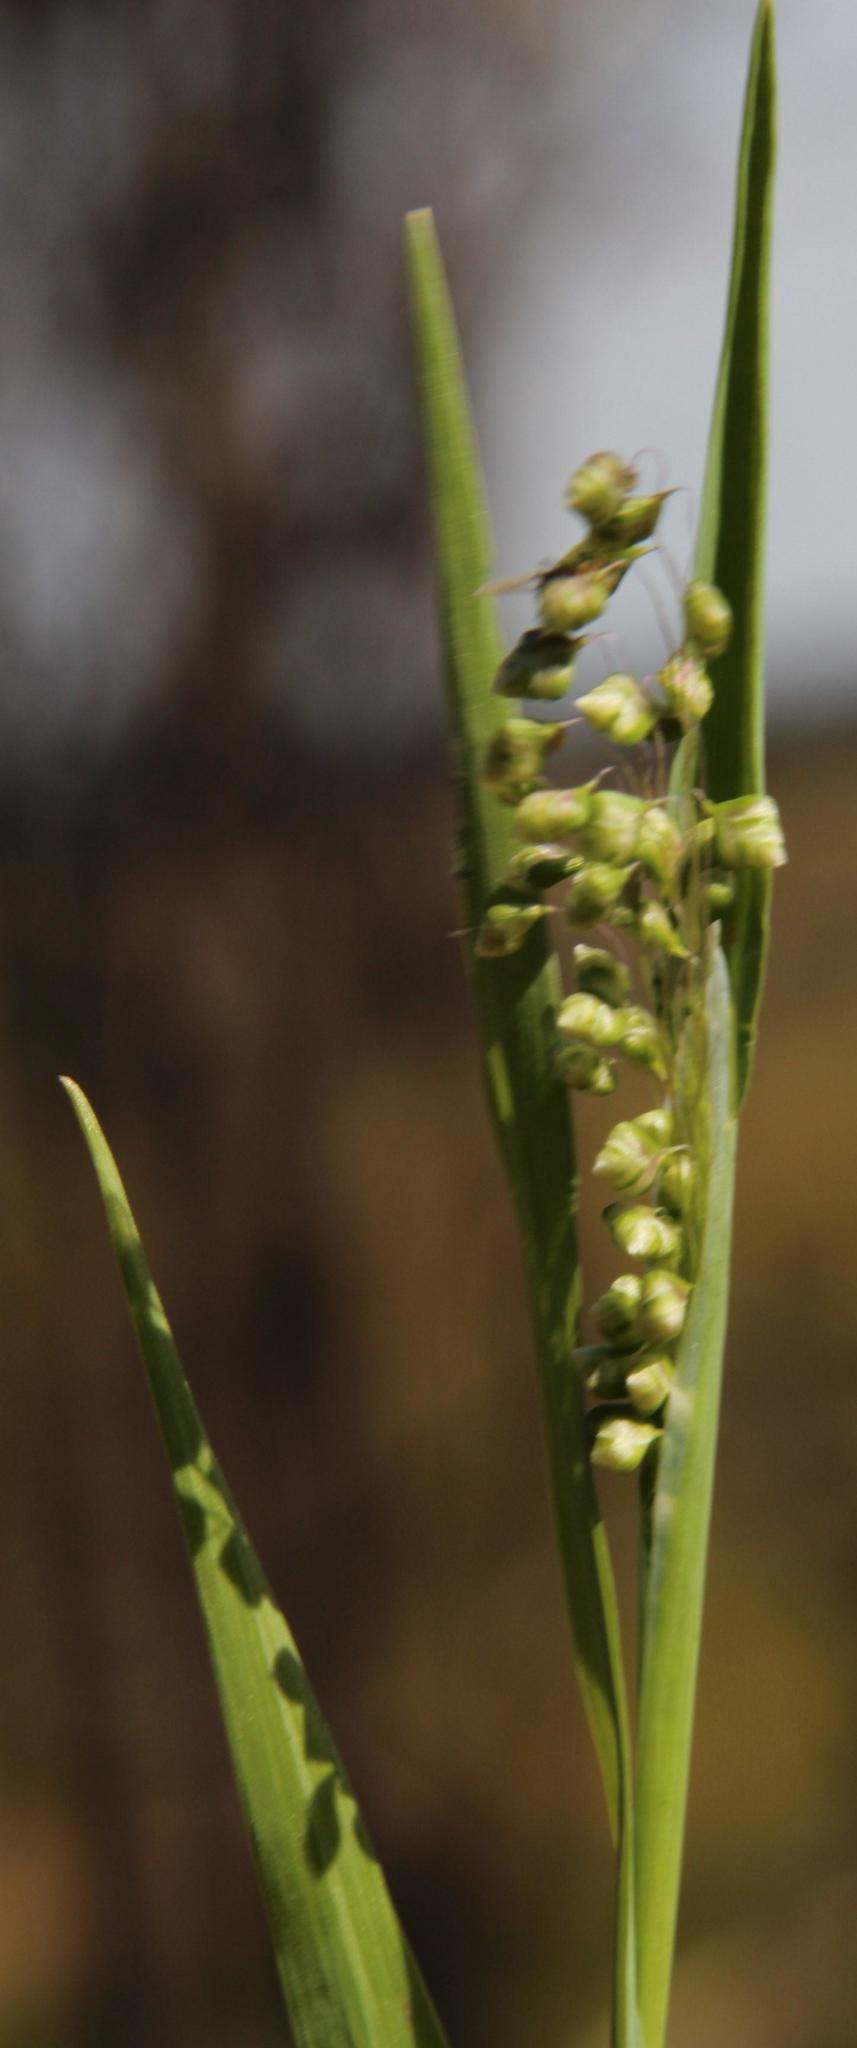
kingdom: Plantae
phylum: Tracheophyta
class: Liliopsida
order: Poales
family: Poaceae
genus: Briza
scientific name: Briza minor
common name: Lesser quaking-grass
